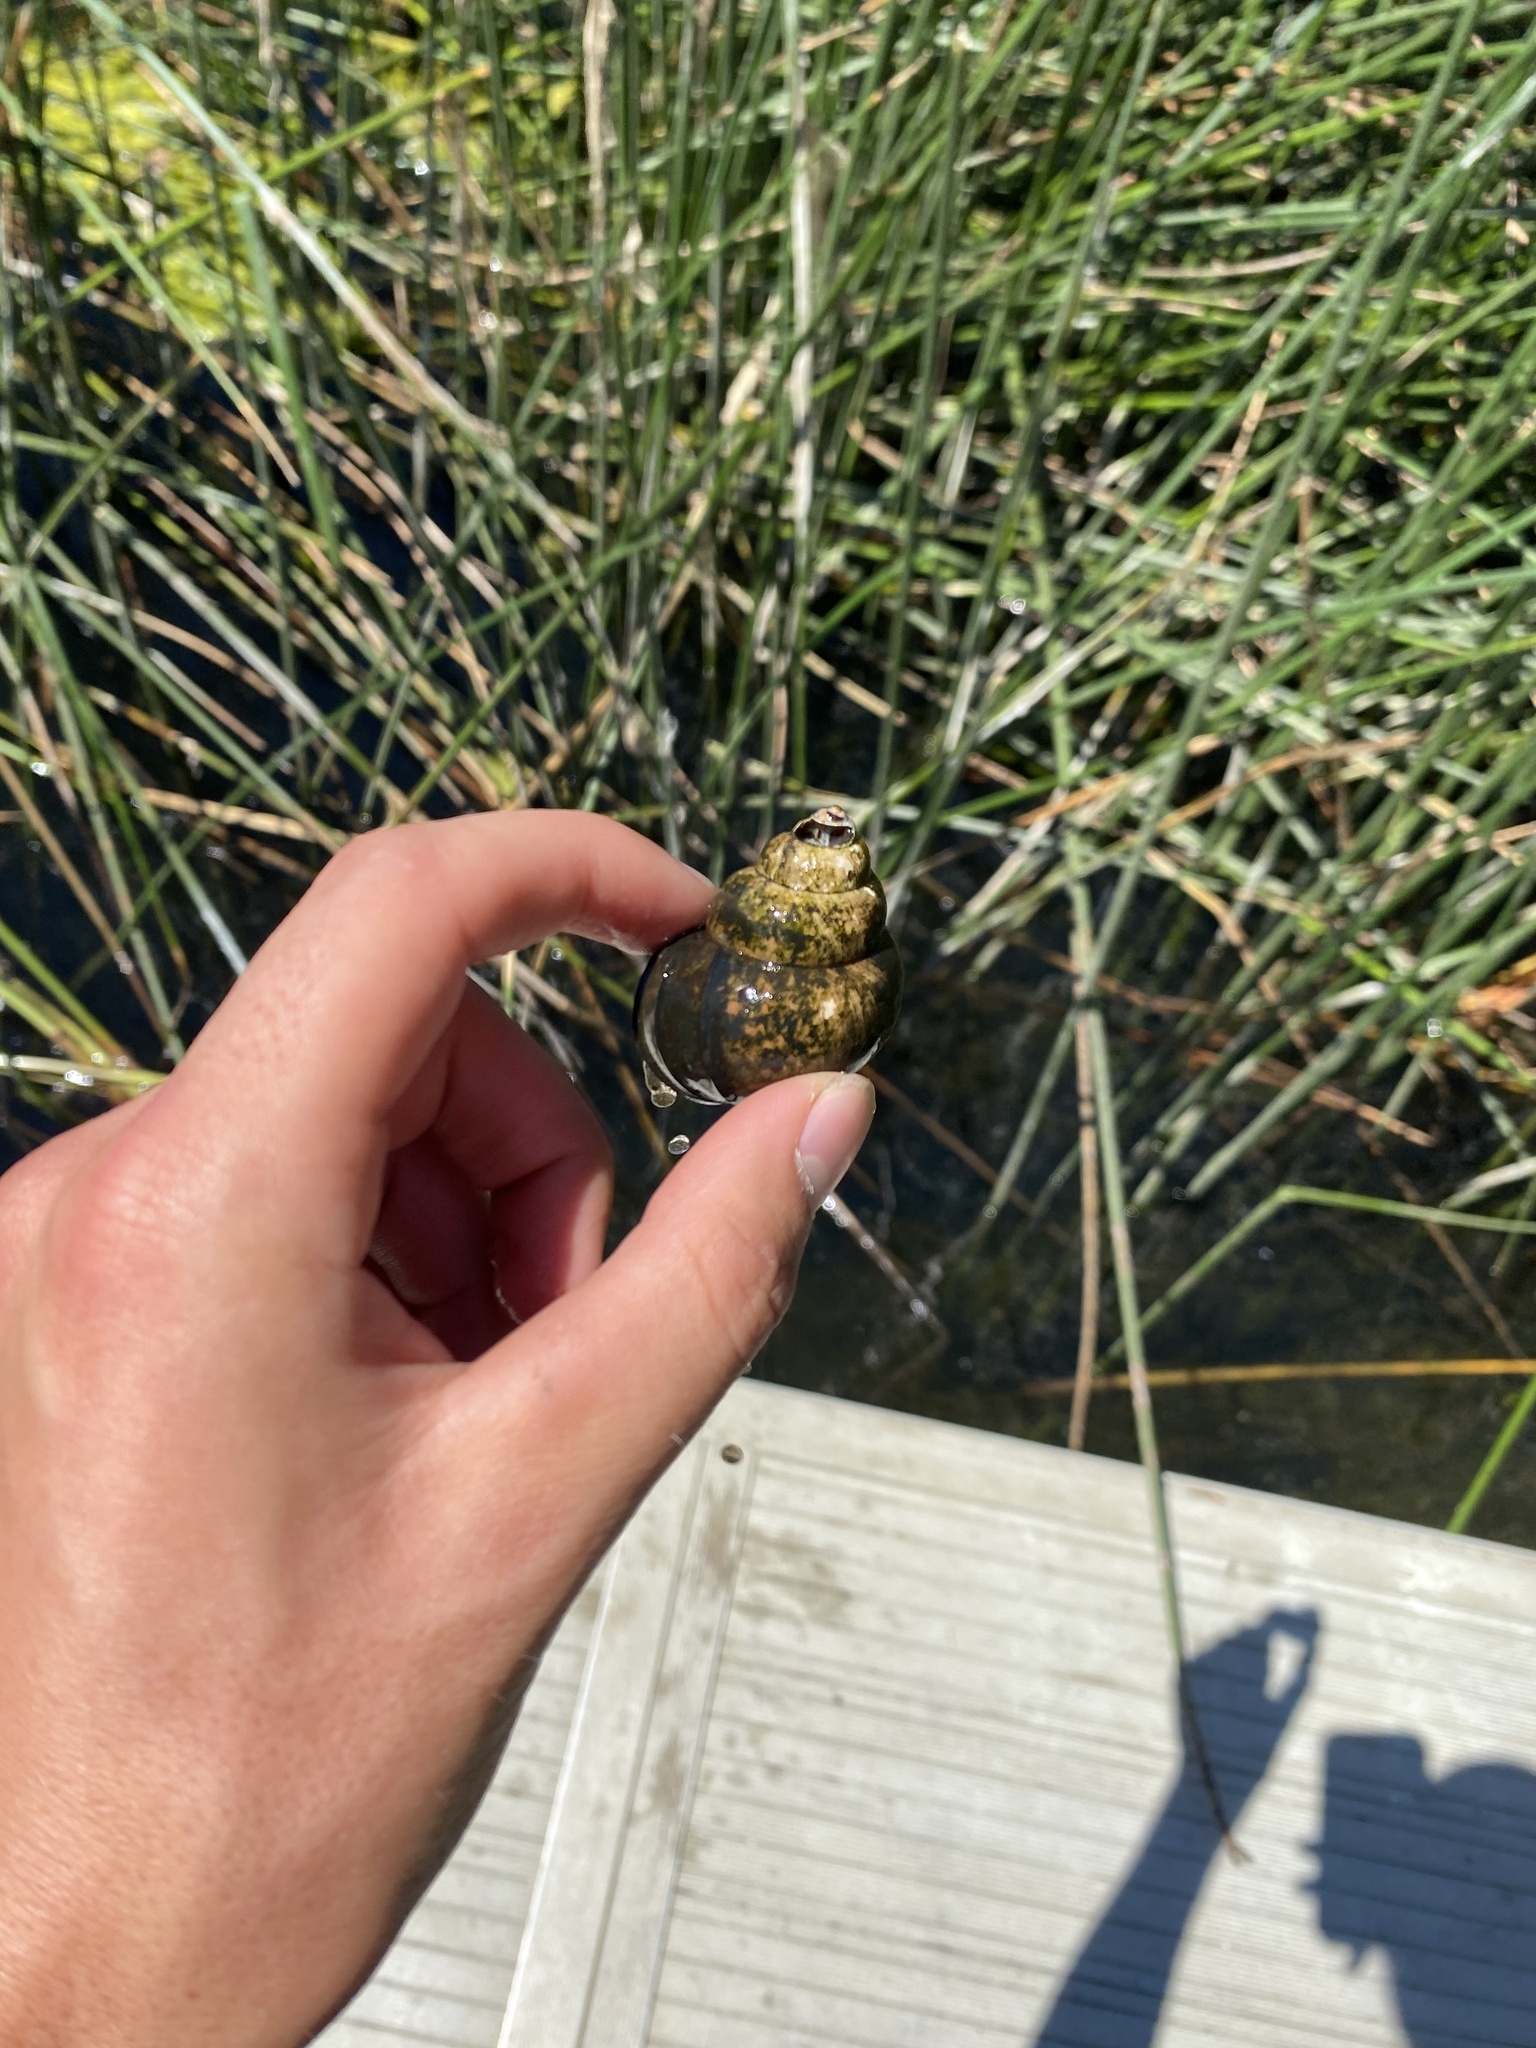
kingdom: Animalia
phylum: Mollusca
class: Gastropoda
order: Architaenioglossa
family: Viviparidae
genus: Cipangopaludina
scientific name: Cipangopaludina chinensis
